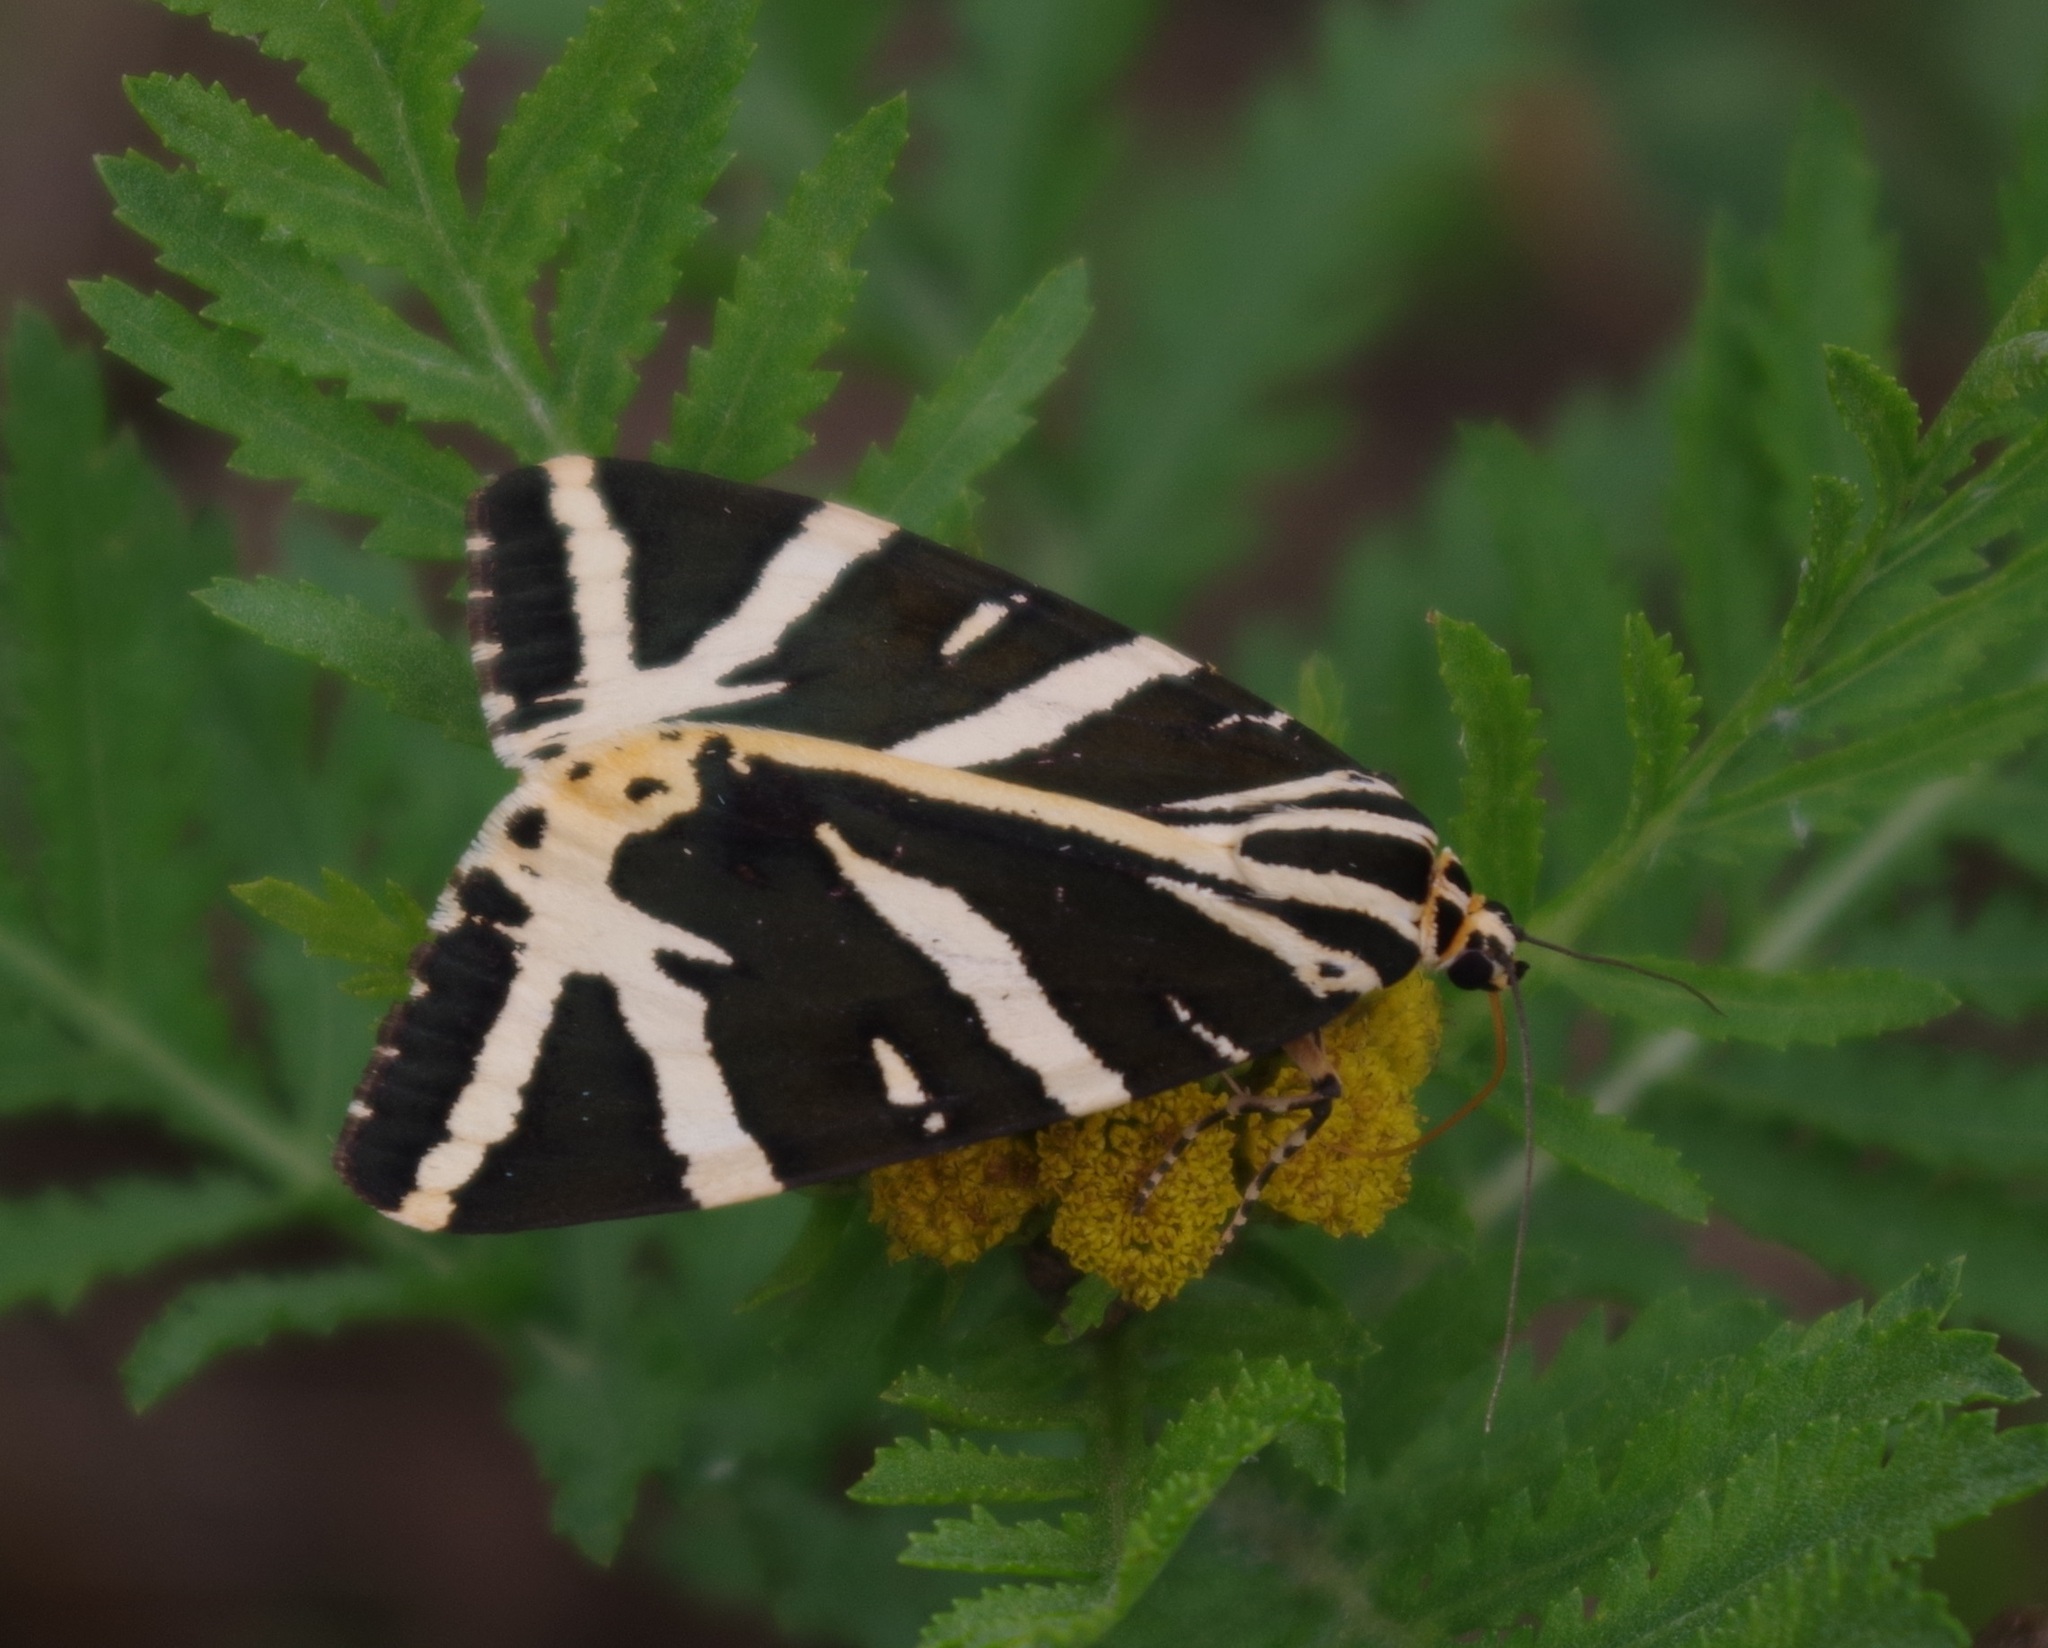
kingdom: Animalia
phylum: Arthropoda
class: Insecta
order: Lepidoptera
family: Erebidae
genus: Euplagia
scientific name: Euplagia quadripunctaria
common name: Jersey tiger
